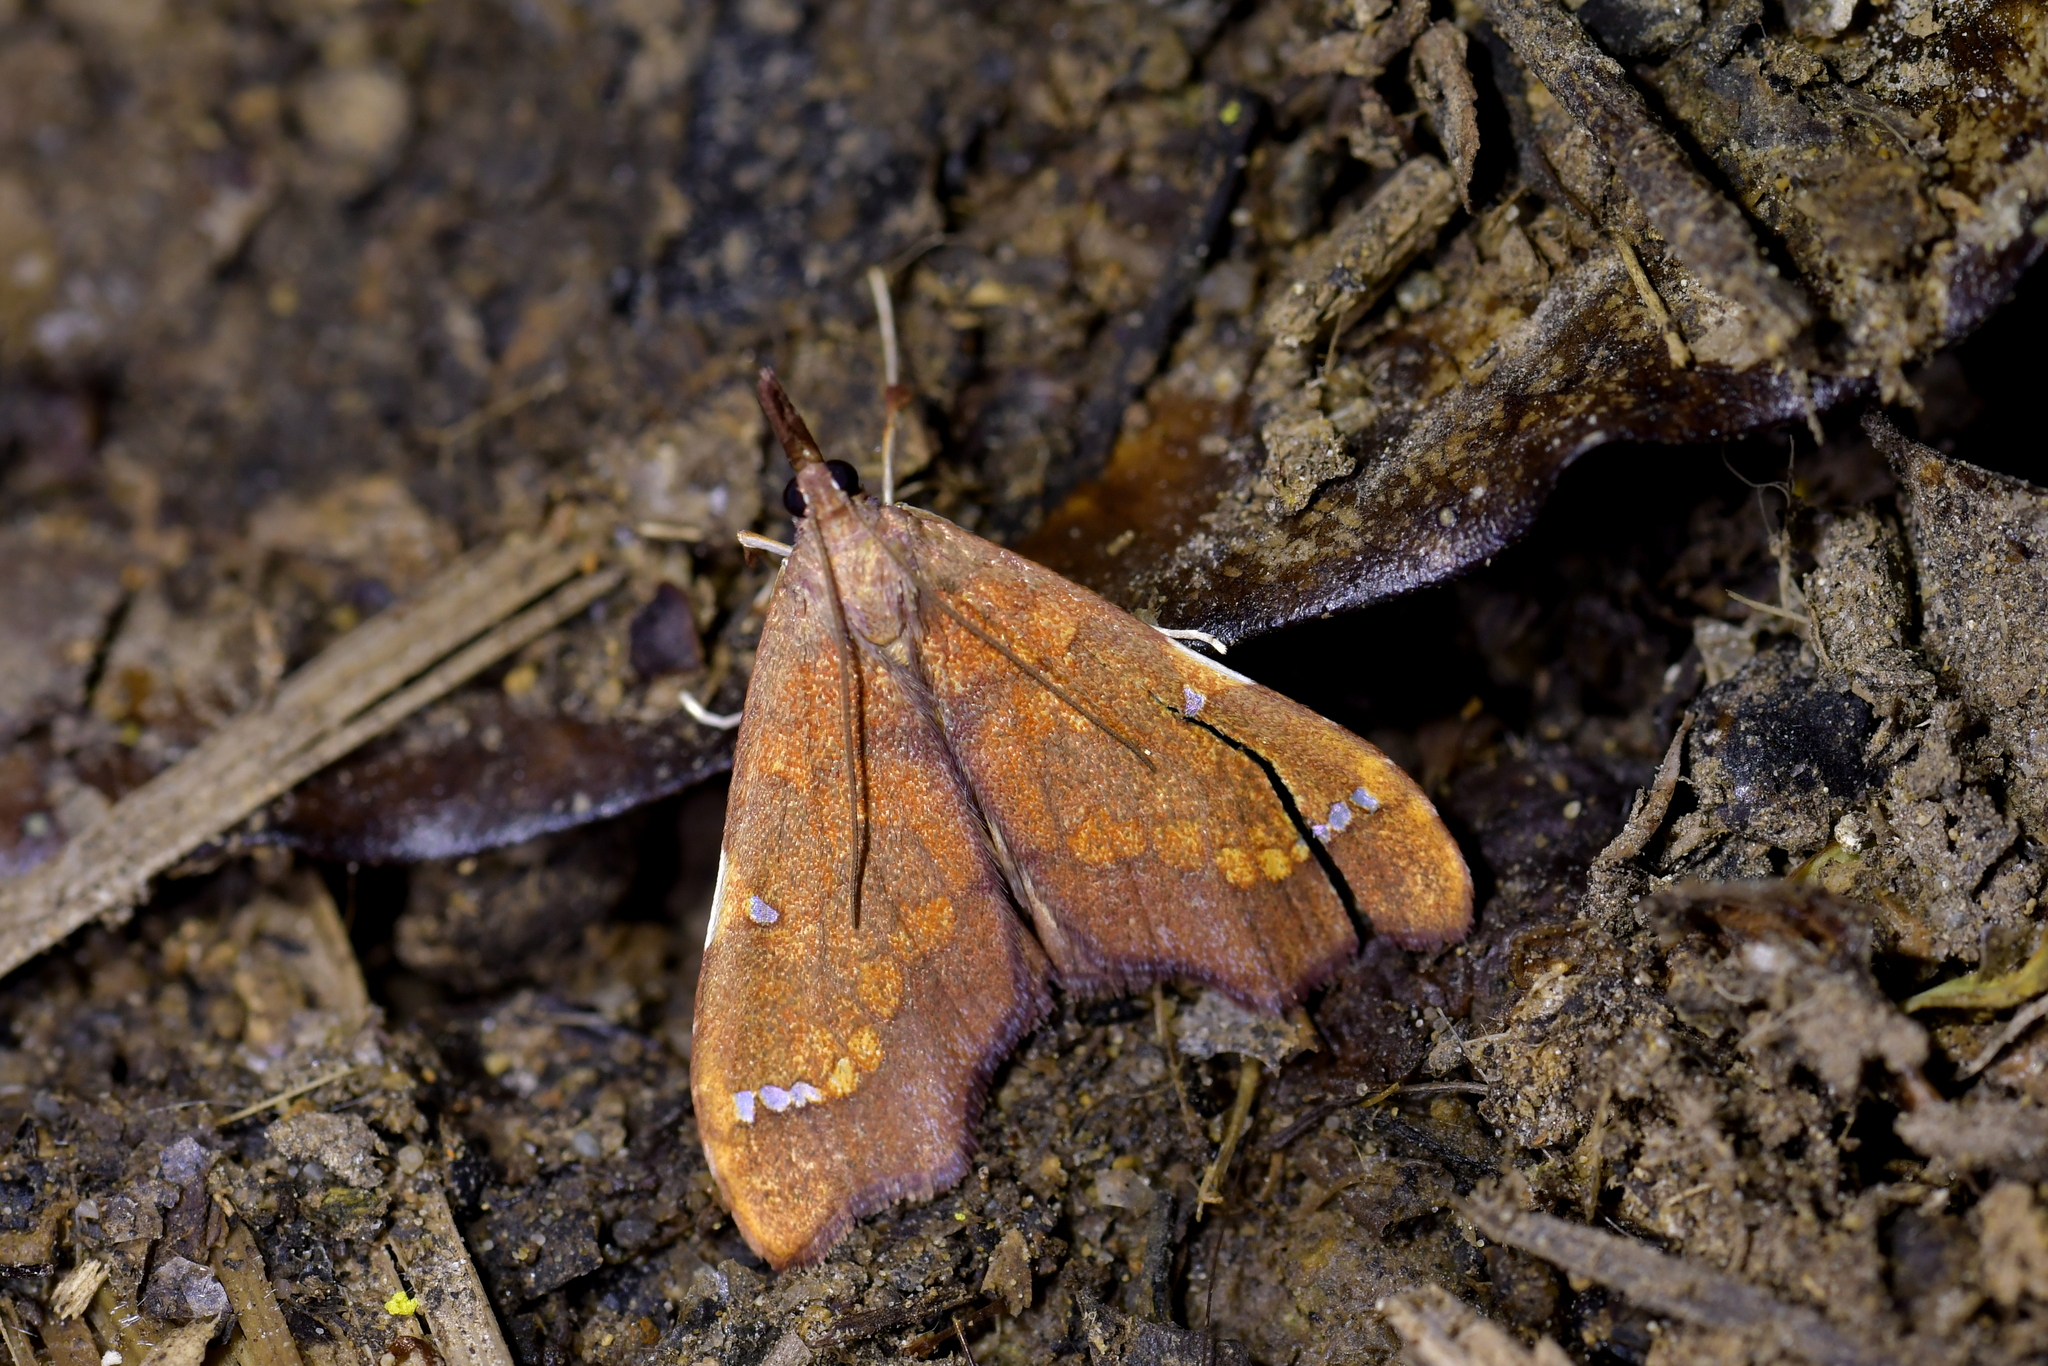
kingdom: Animalia
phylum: Arthropoda
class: Insecta
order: Lepidoptera
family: Crambidae
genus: Deana
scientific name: Deana hybreasalis
